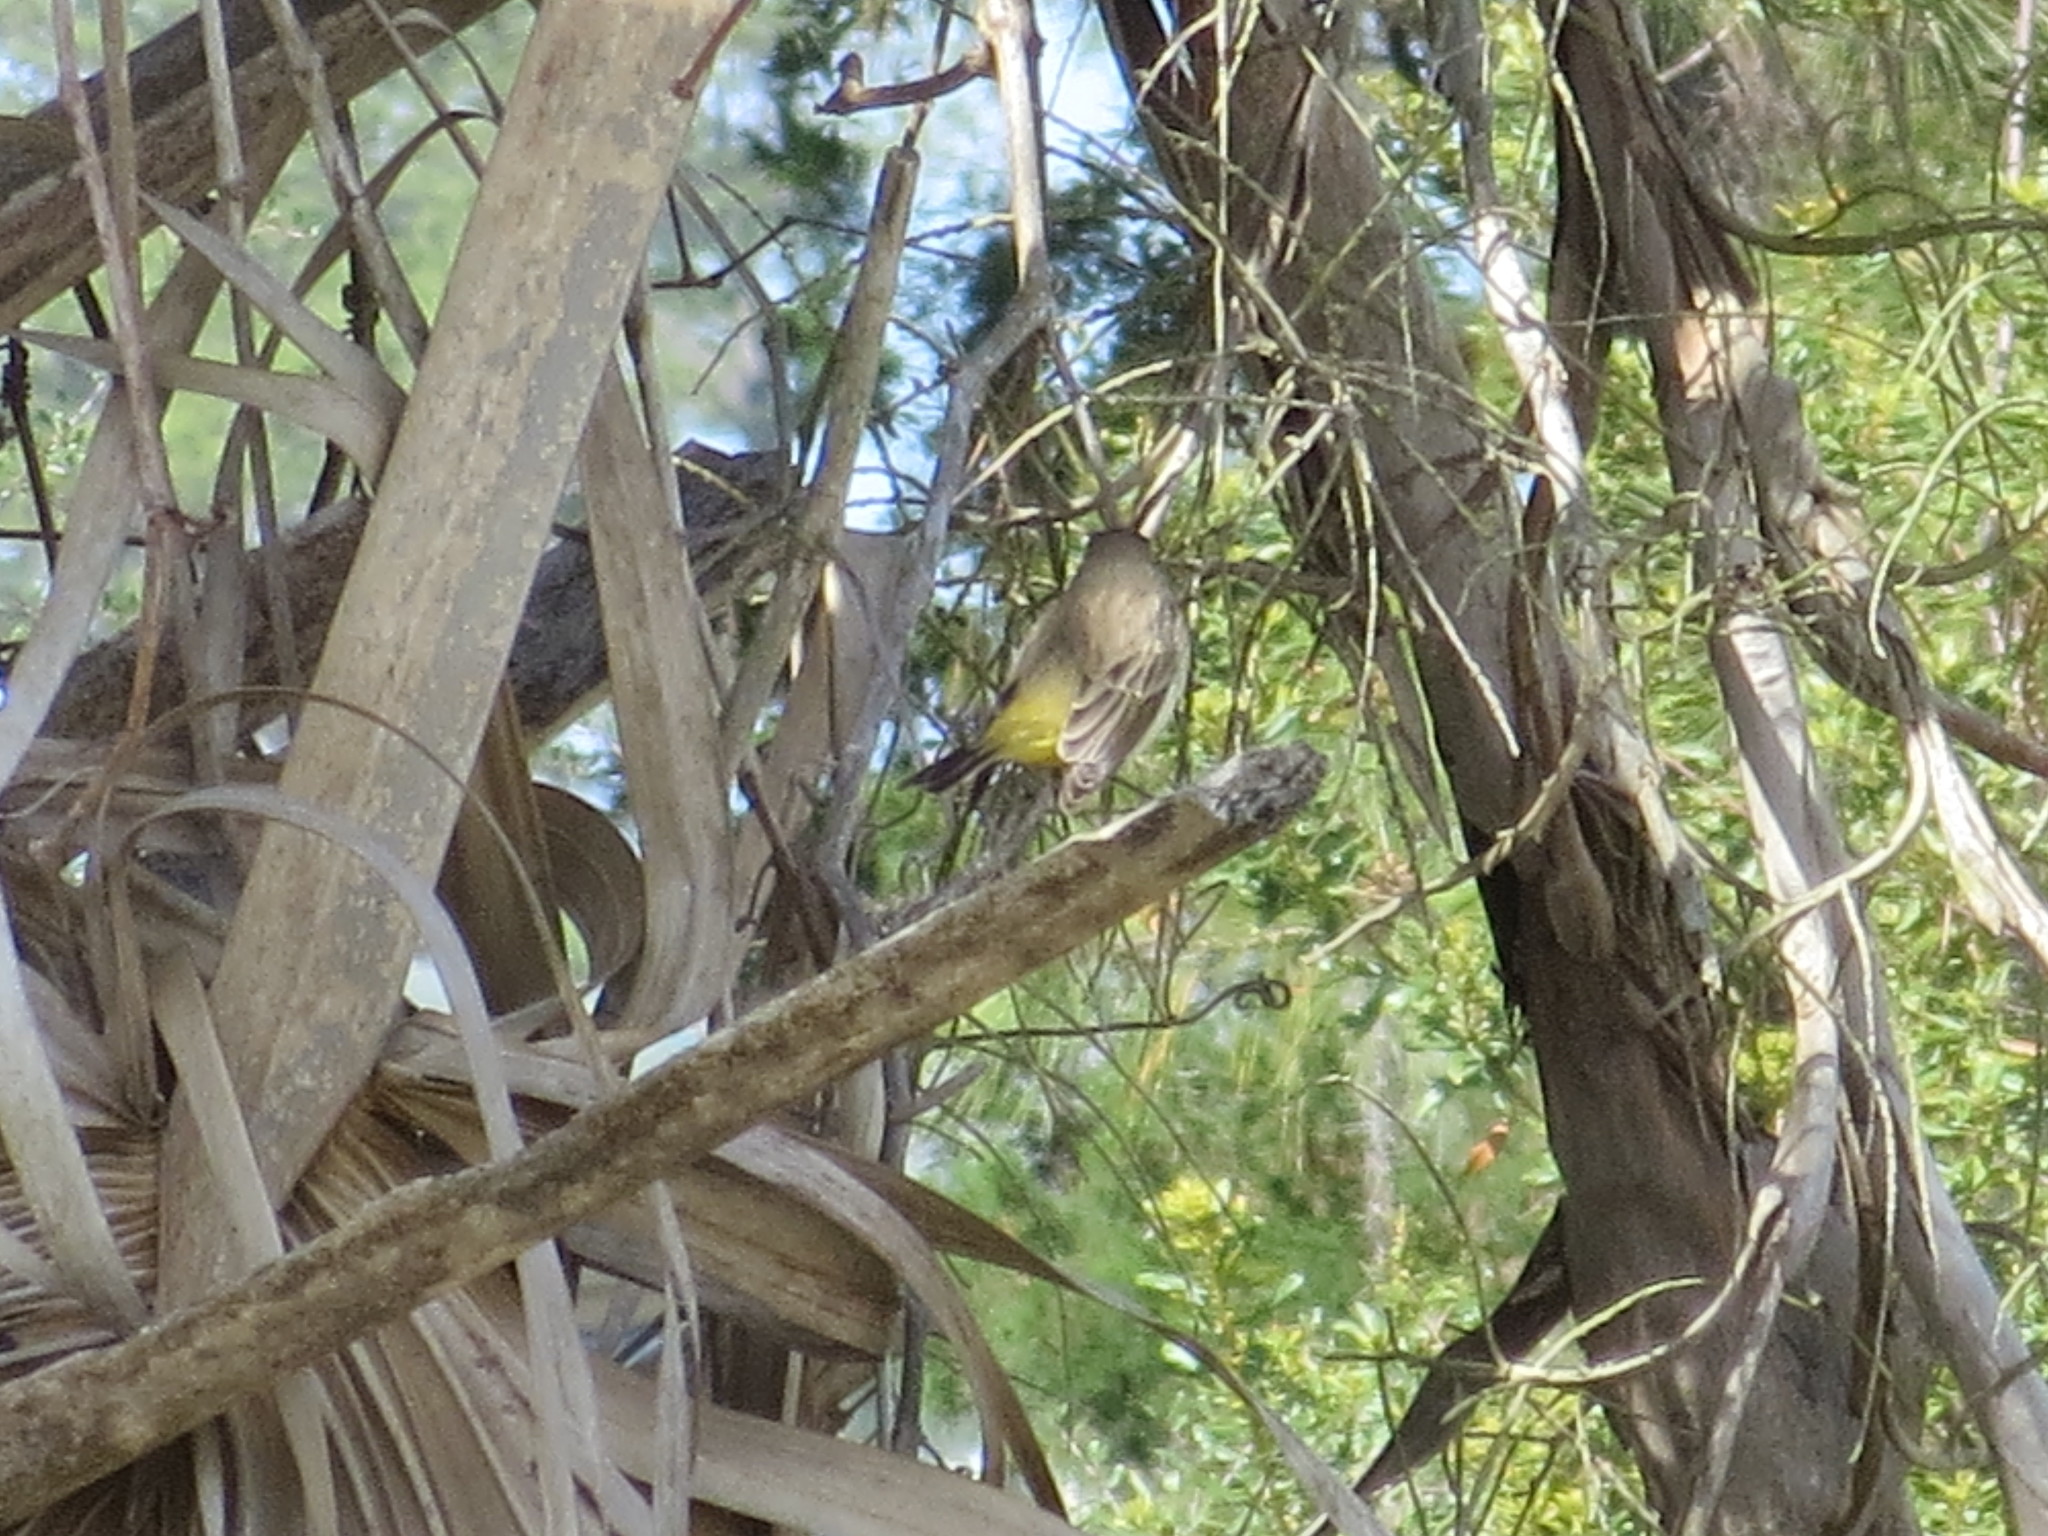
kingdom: Animalia
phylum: Chordata
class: Aves
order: Passeriformes
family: Parulidae
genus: Setophaga
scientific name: Setophaga palmarum
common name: Palm warbler
